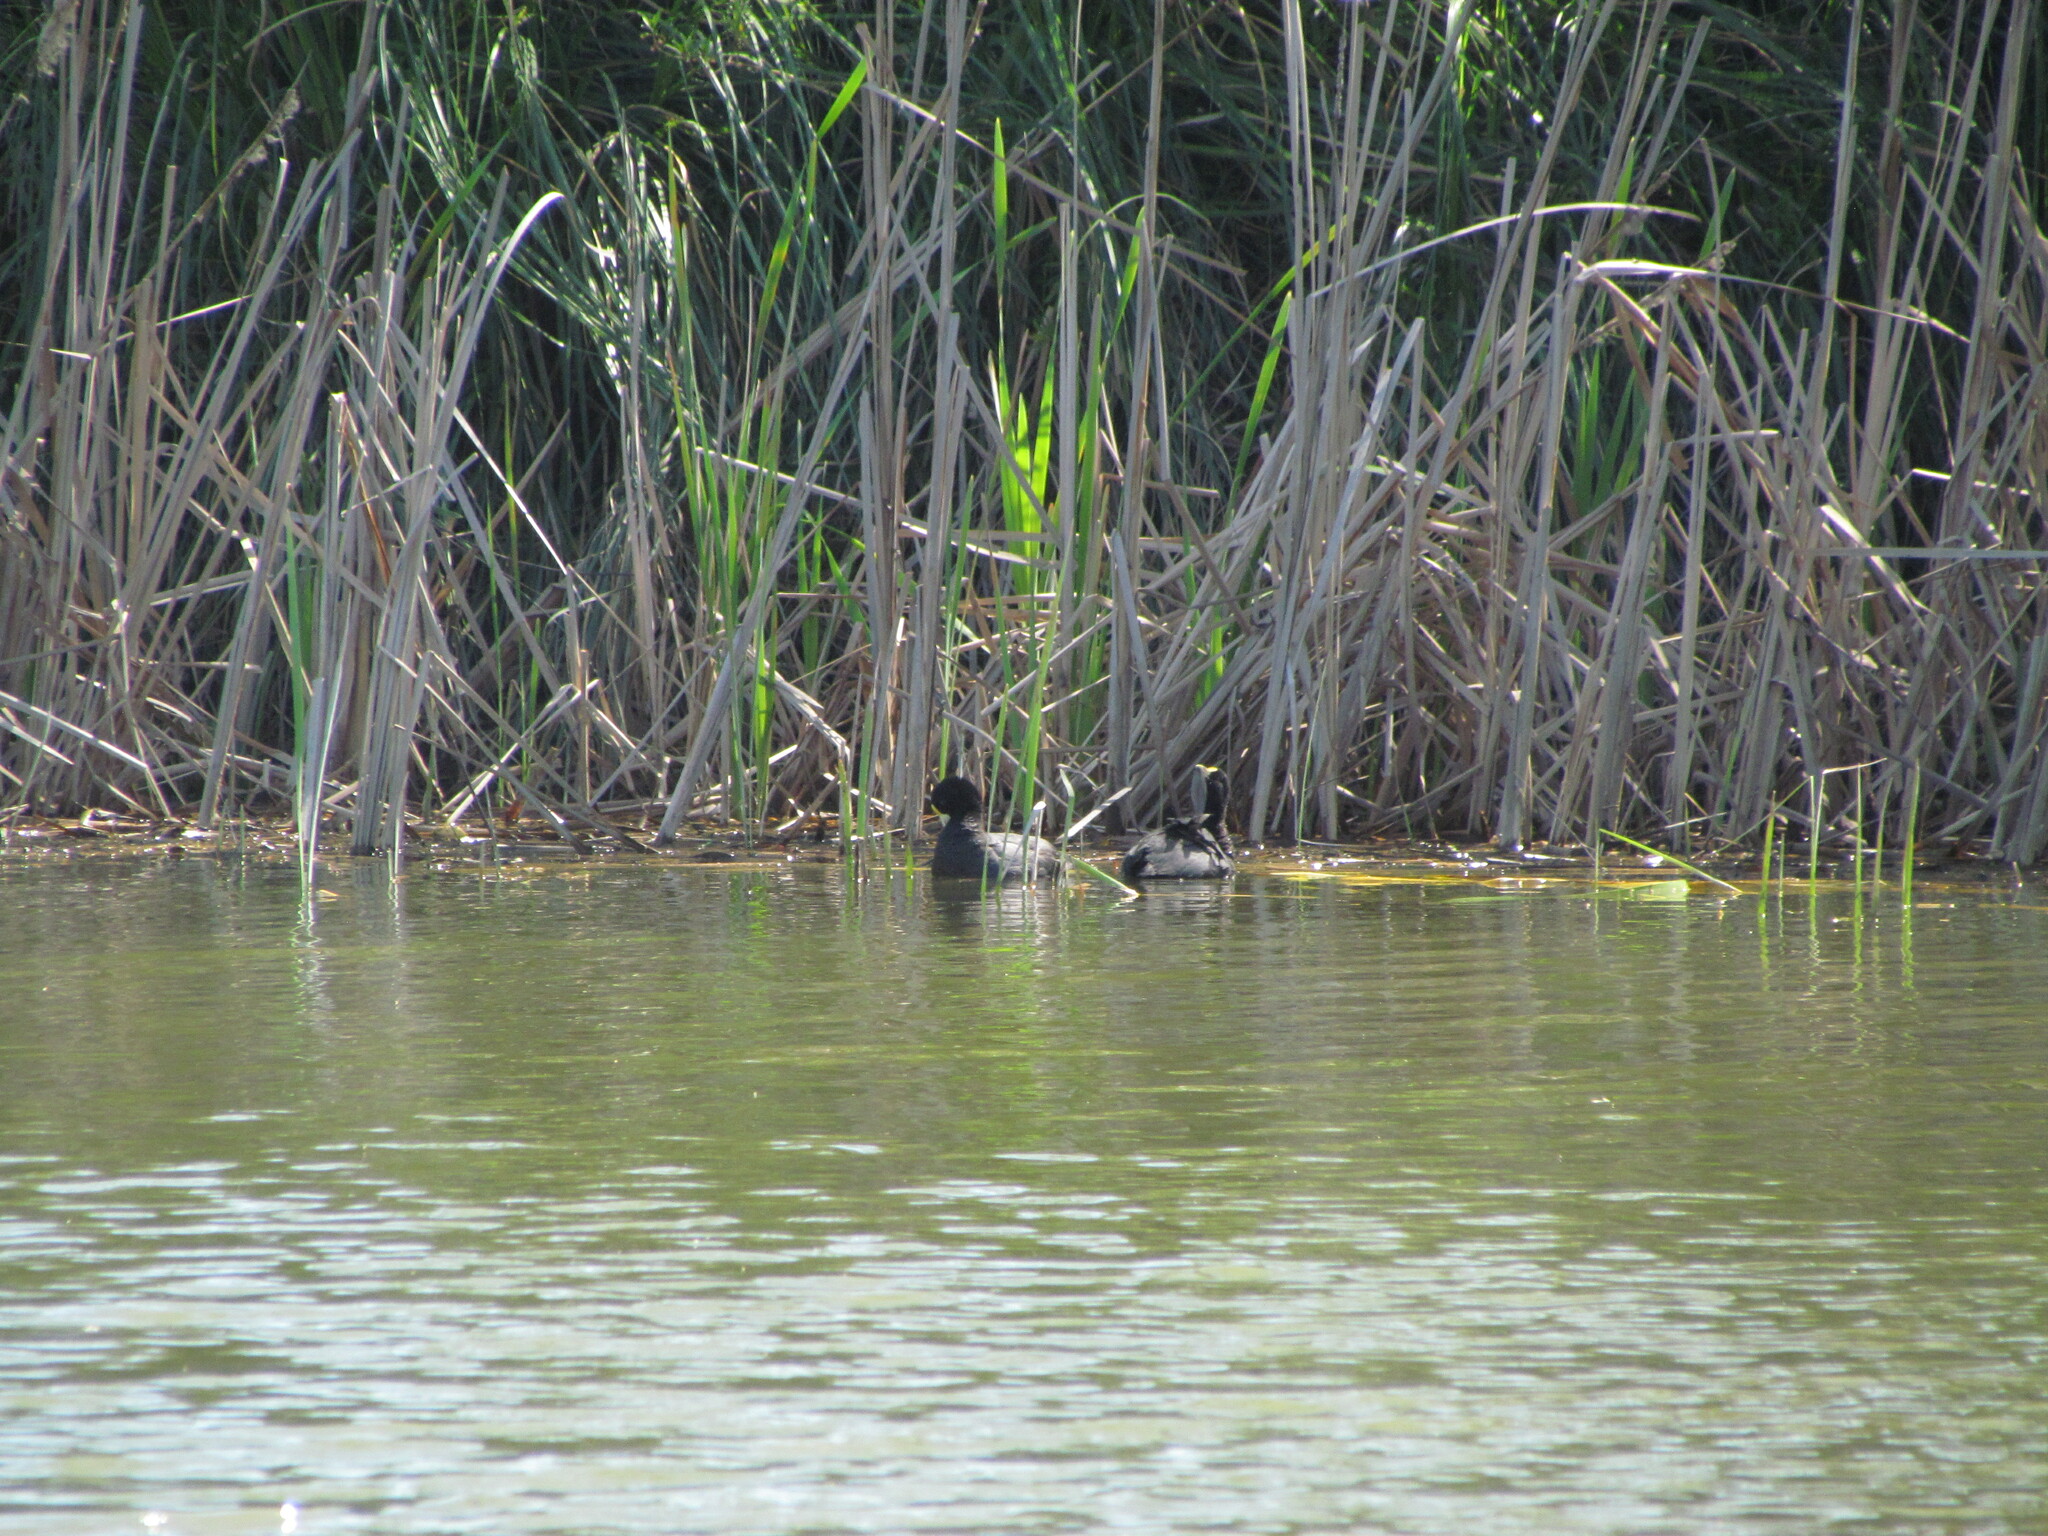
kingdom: Animalia
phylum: Chordata
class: Aves
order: Gruiformes
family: Rallidae
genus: Fulica
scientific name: Fulica leucoptera
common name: White-winged coot
